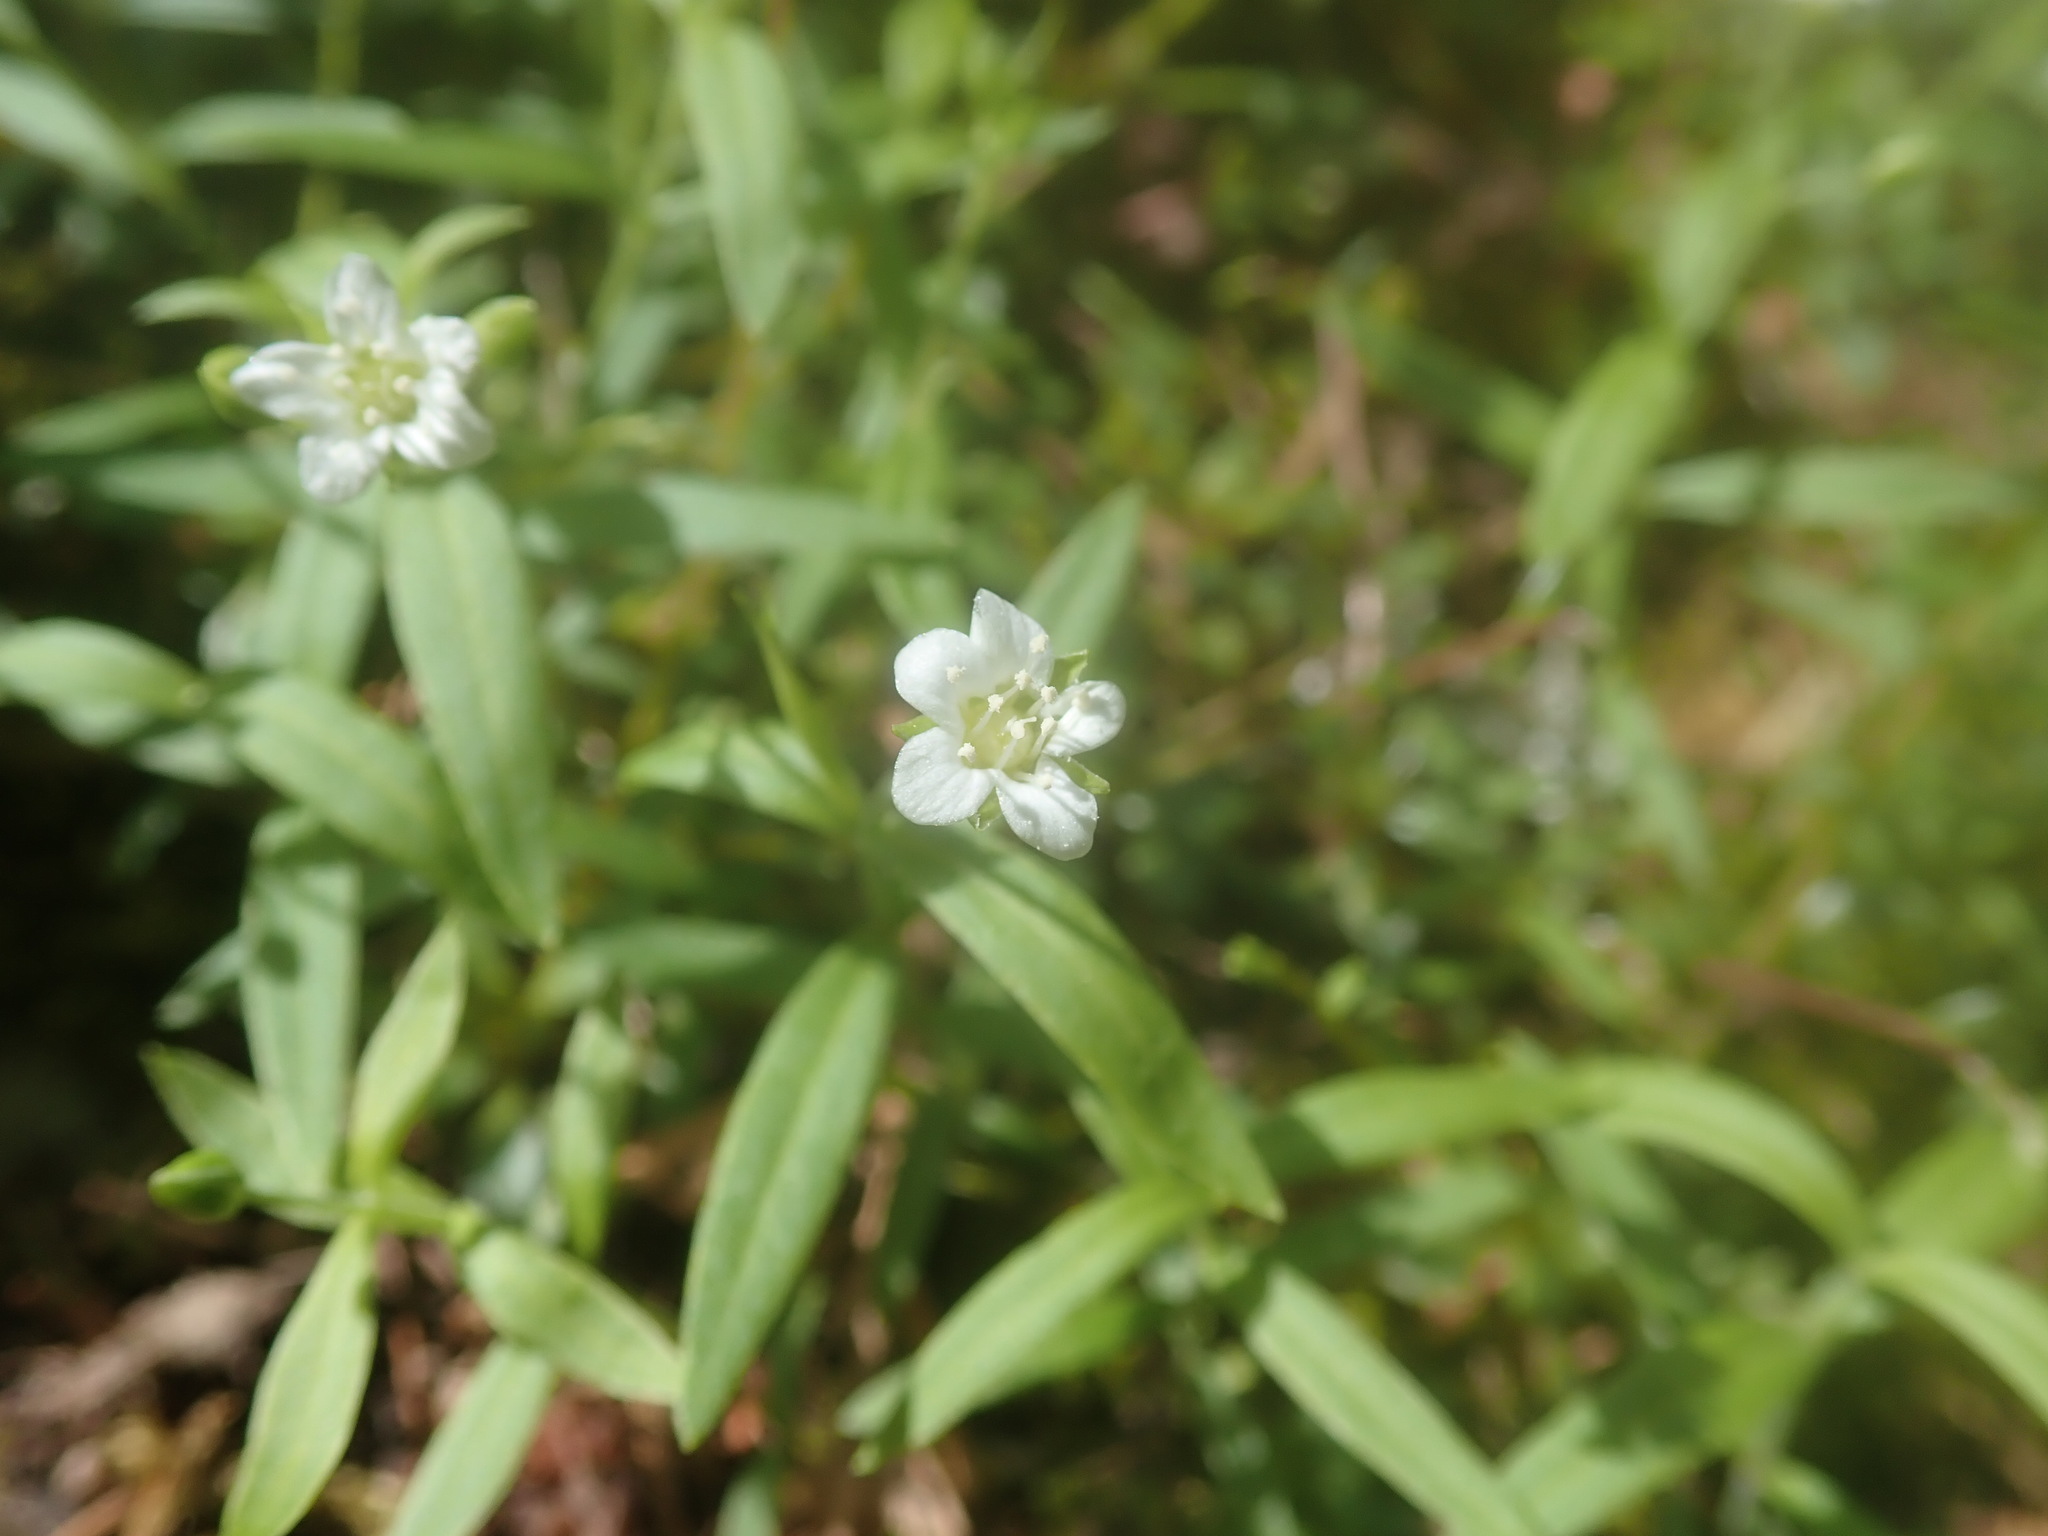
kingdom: Plantae
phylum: Tracheophyta
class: Magnoliopsida
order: Caryophyllales
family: Caryophyllaceae
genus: Moehringia
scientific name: Moehringia macrophylla
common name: Big-leaf sandwort
